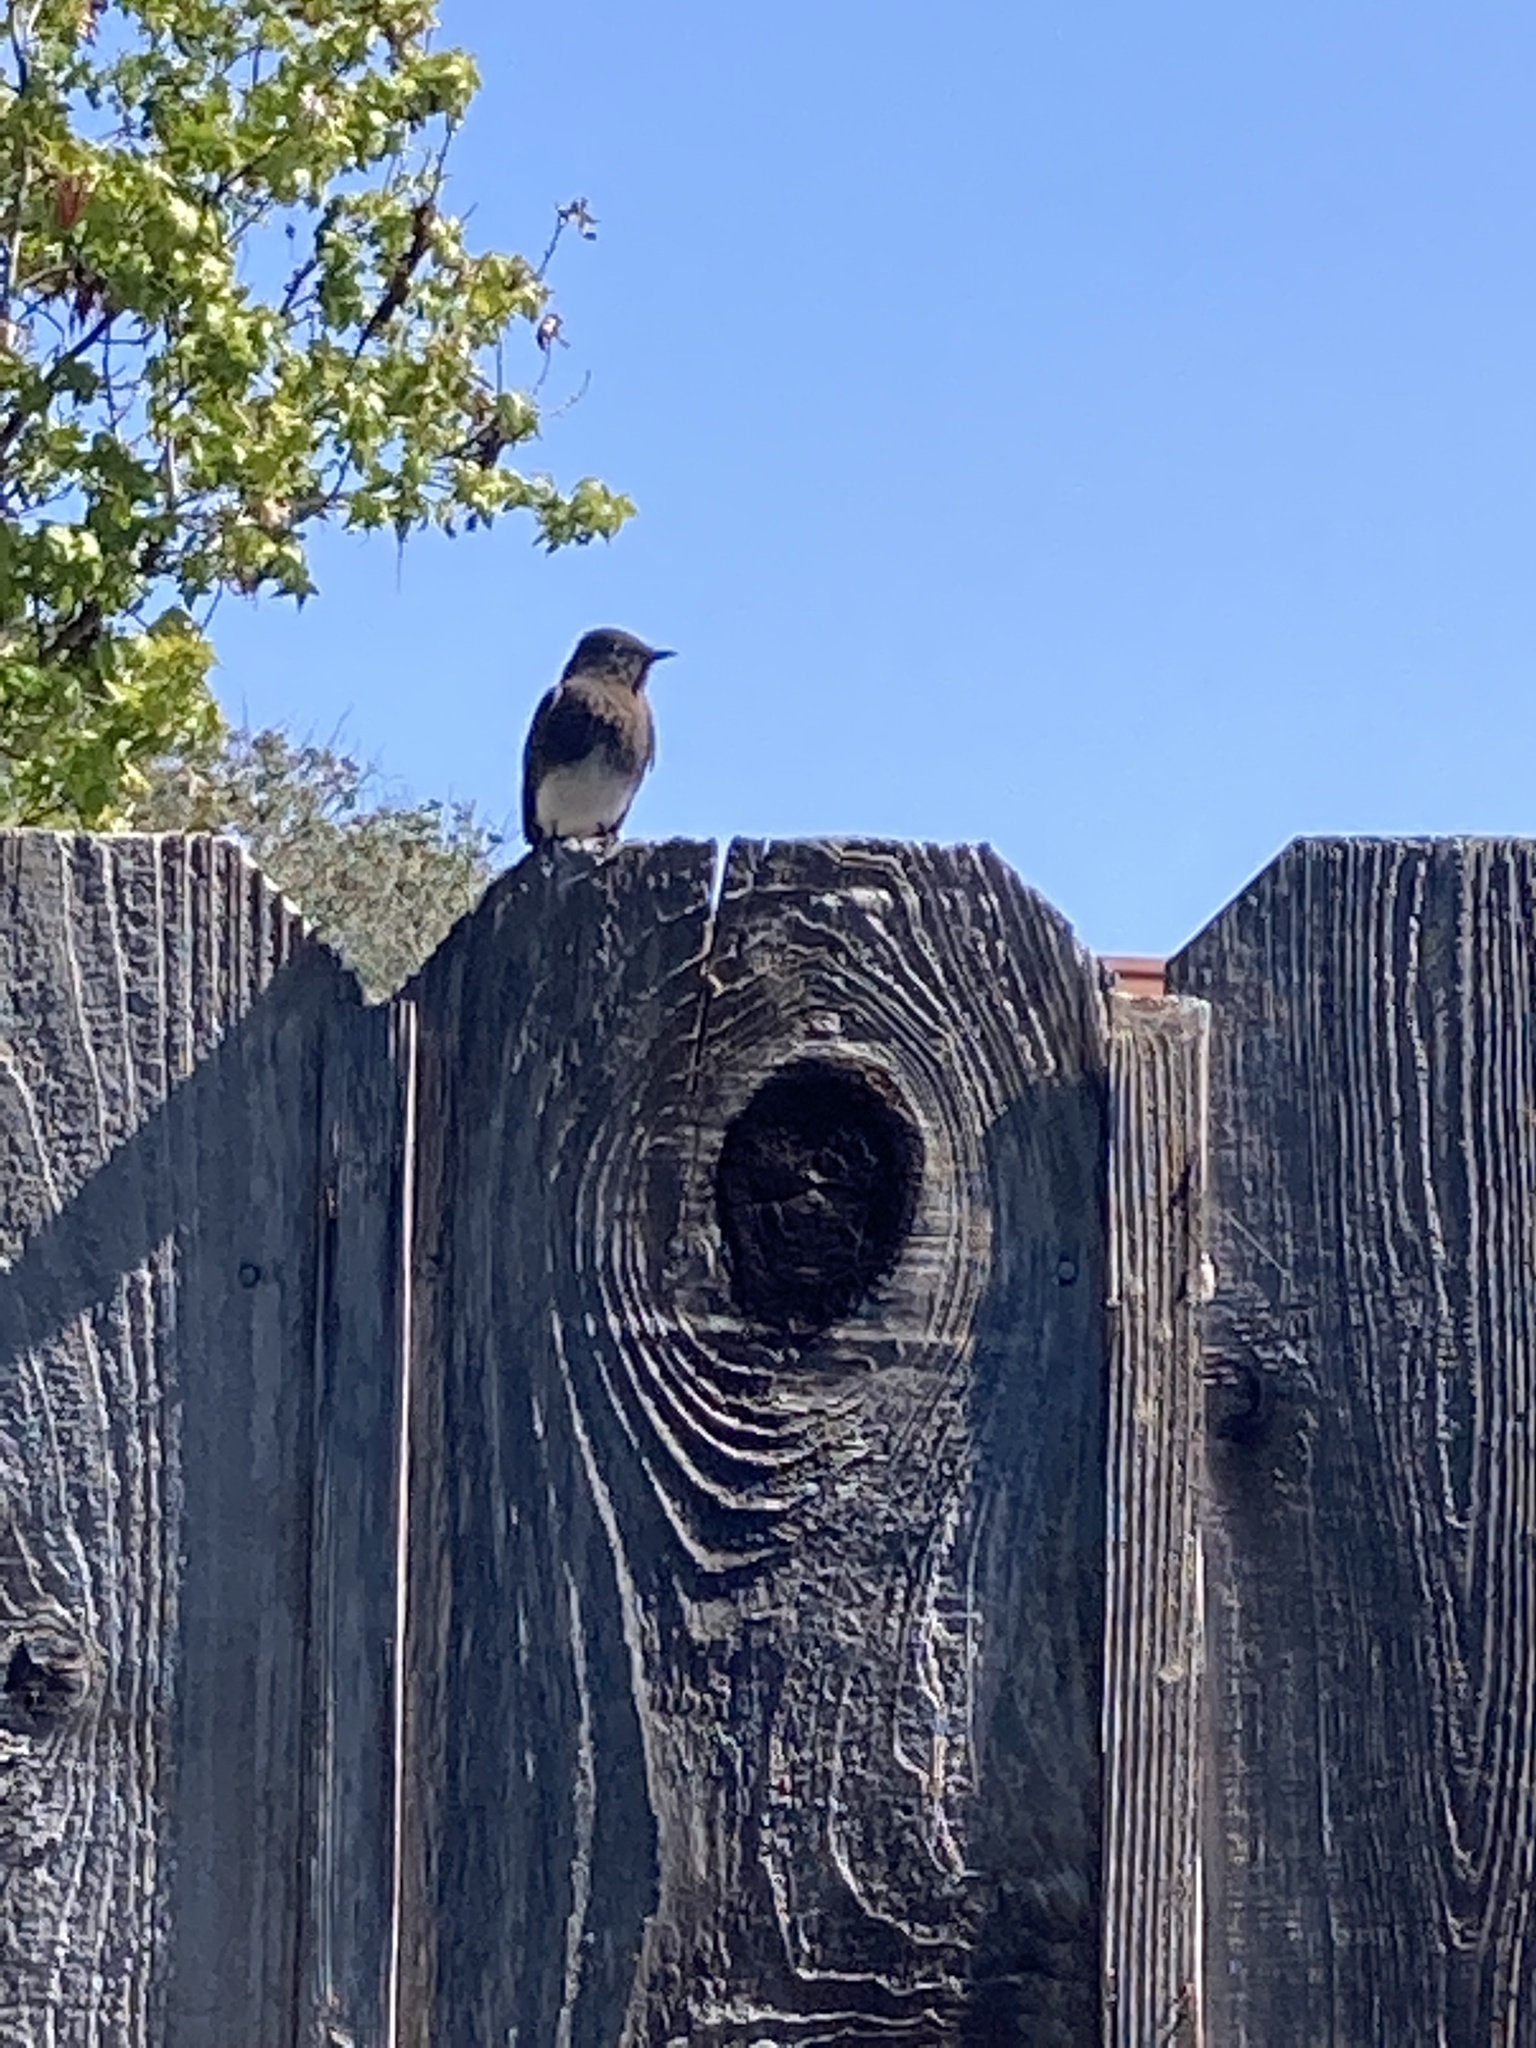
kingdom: Animalia
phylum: Chordata
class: Aves
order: Passeriformes
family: Tyrannidae
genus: Sayornis
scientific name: Sayornis nigricans
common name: Black phoebe
